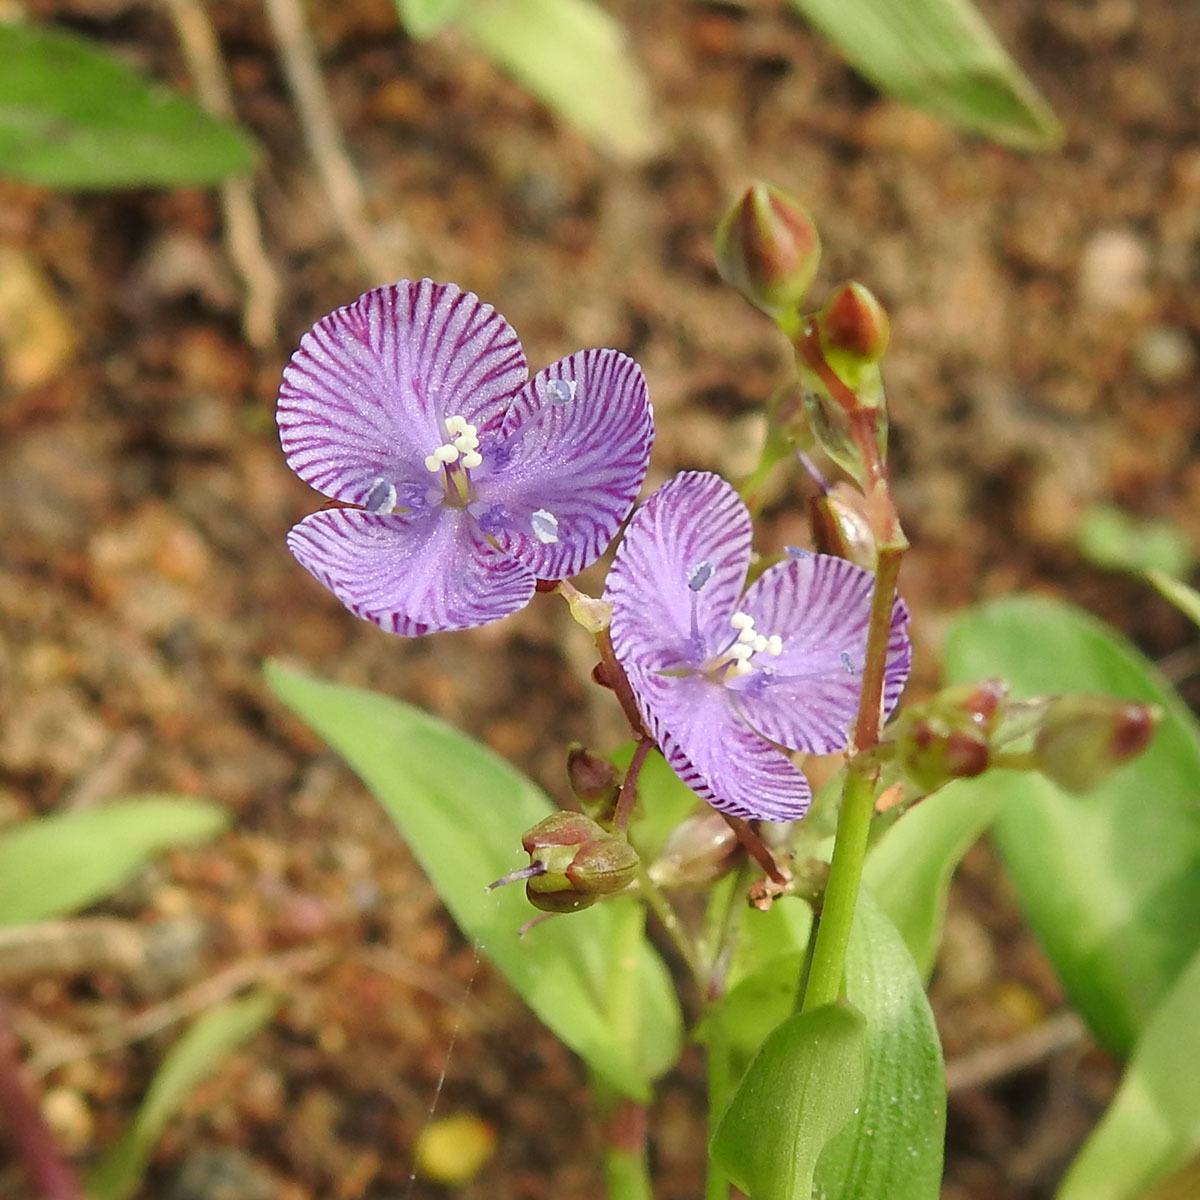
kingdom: Plantae
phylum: Tracheophyta
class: Liliopsida
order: Commelinales
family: Commelinaceae
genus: Murdannia
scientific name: Murdannia striatipetala
